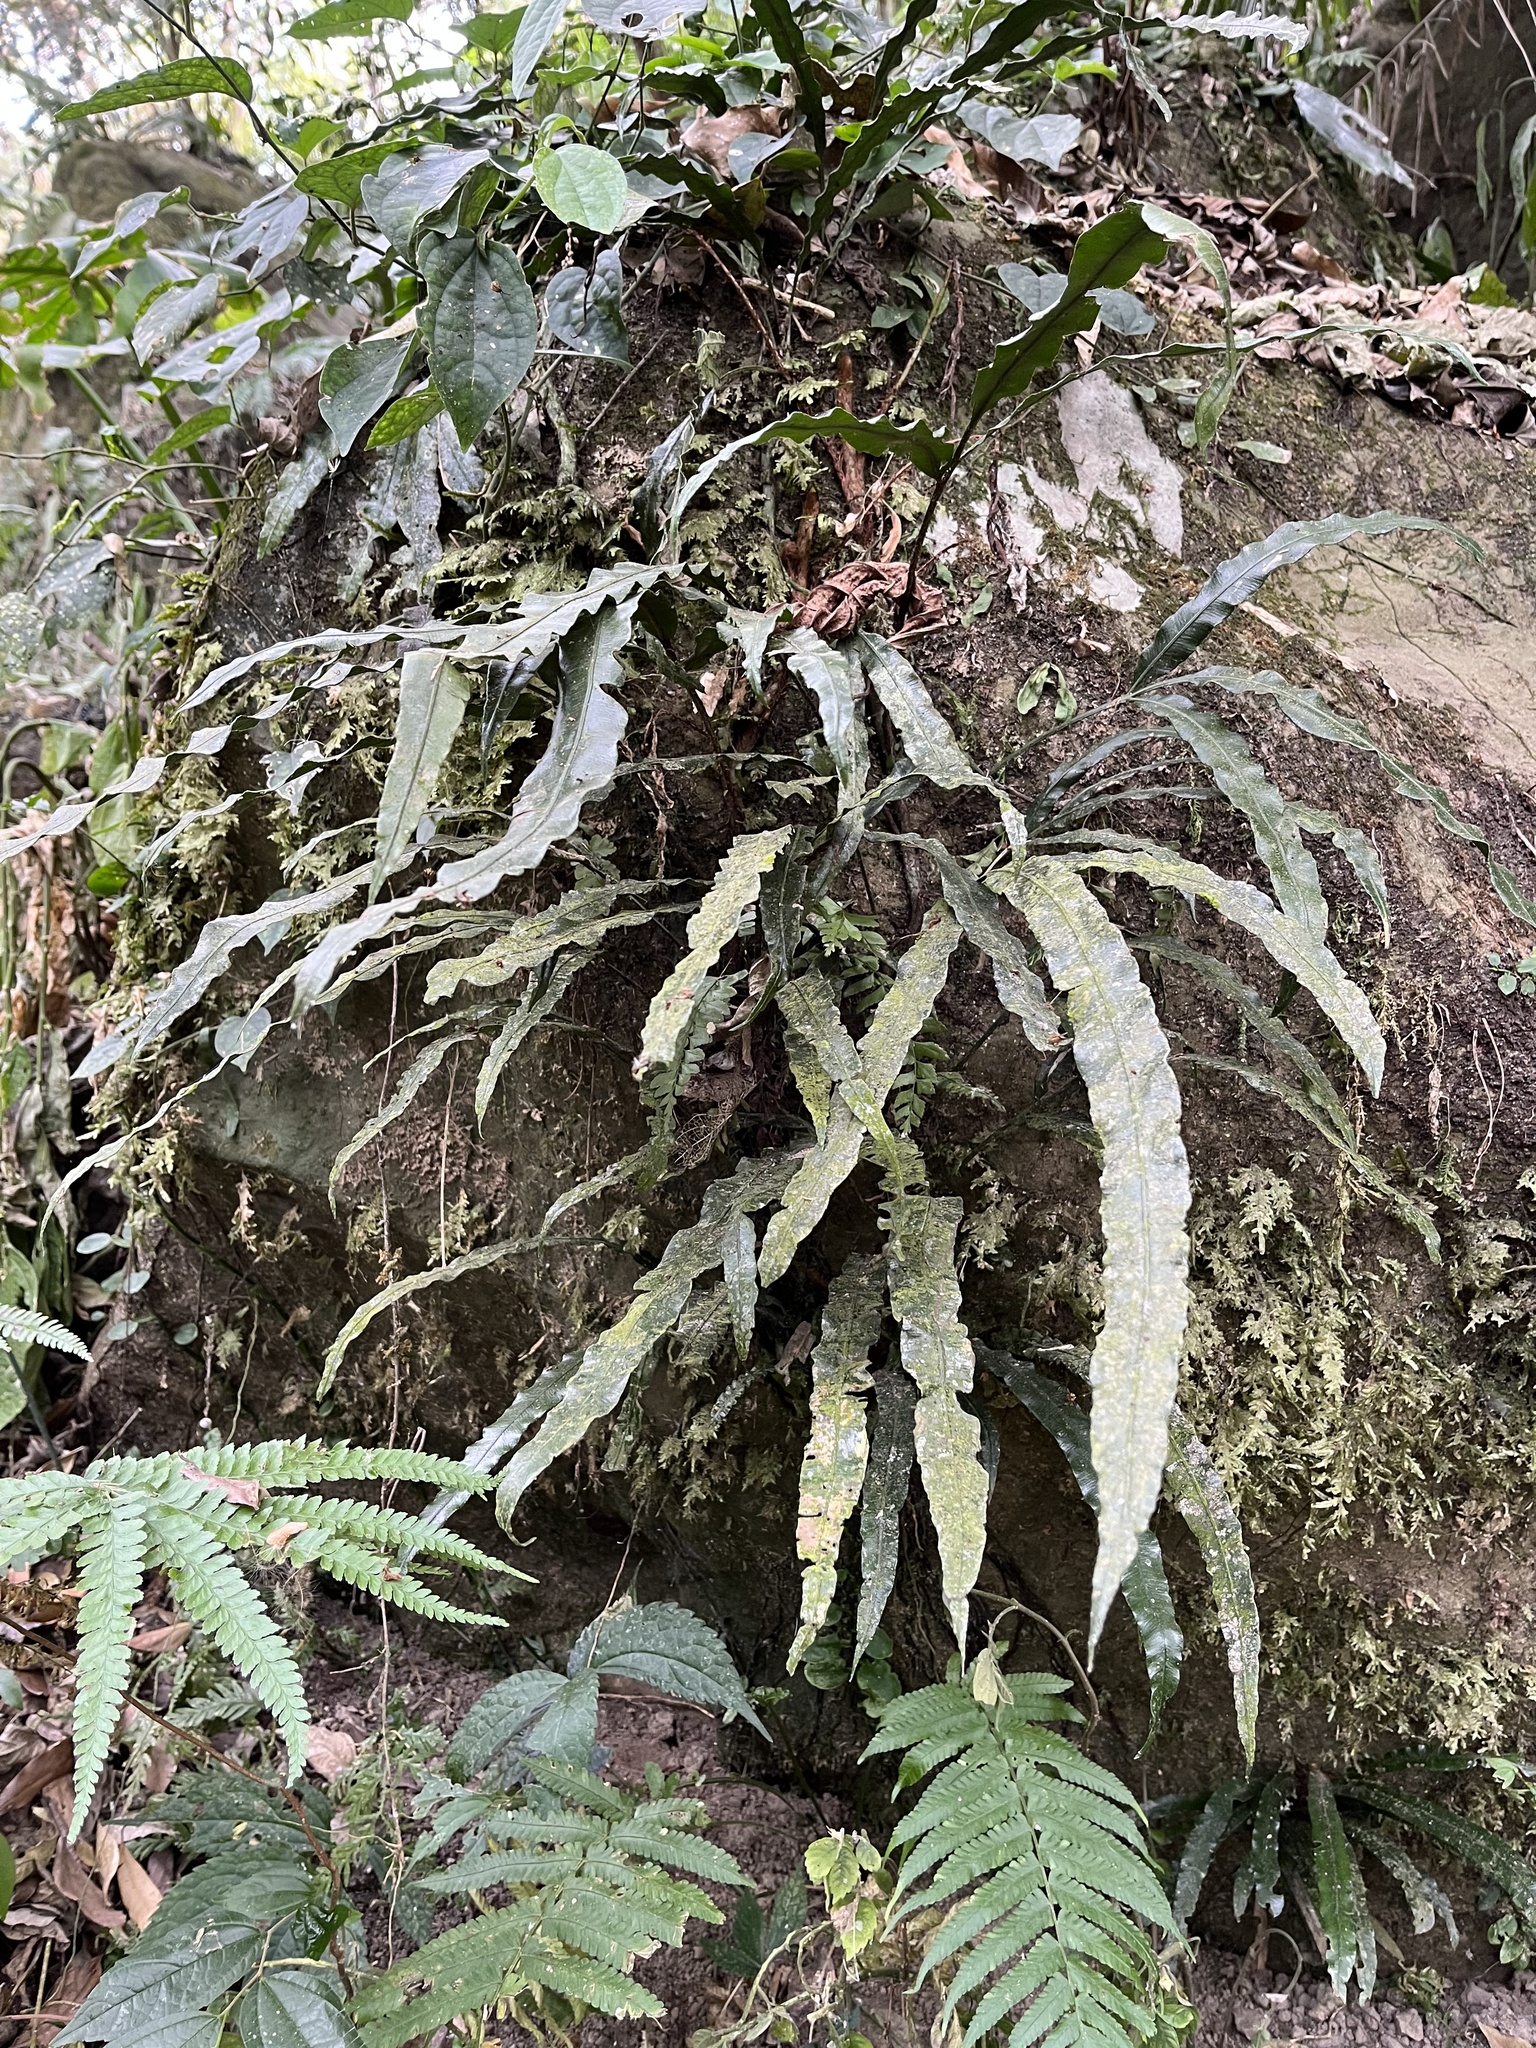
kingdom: Plantae
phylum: Tracheophyta
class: Polypodiopsida
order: Polypodiales
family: Lomariopsidaceae
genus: Lomariopsis
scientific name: Lomariopsis boninensis
